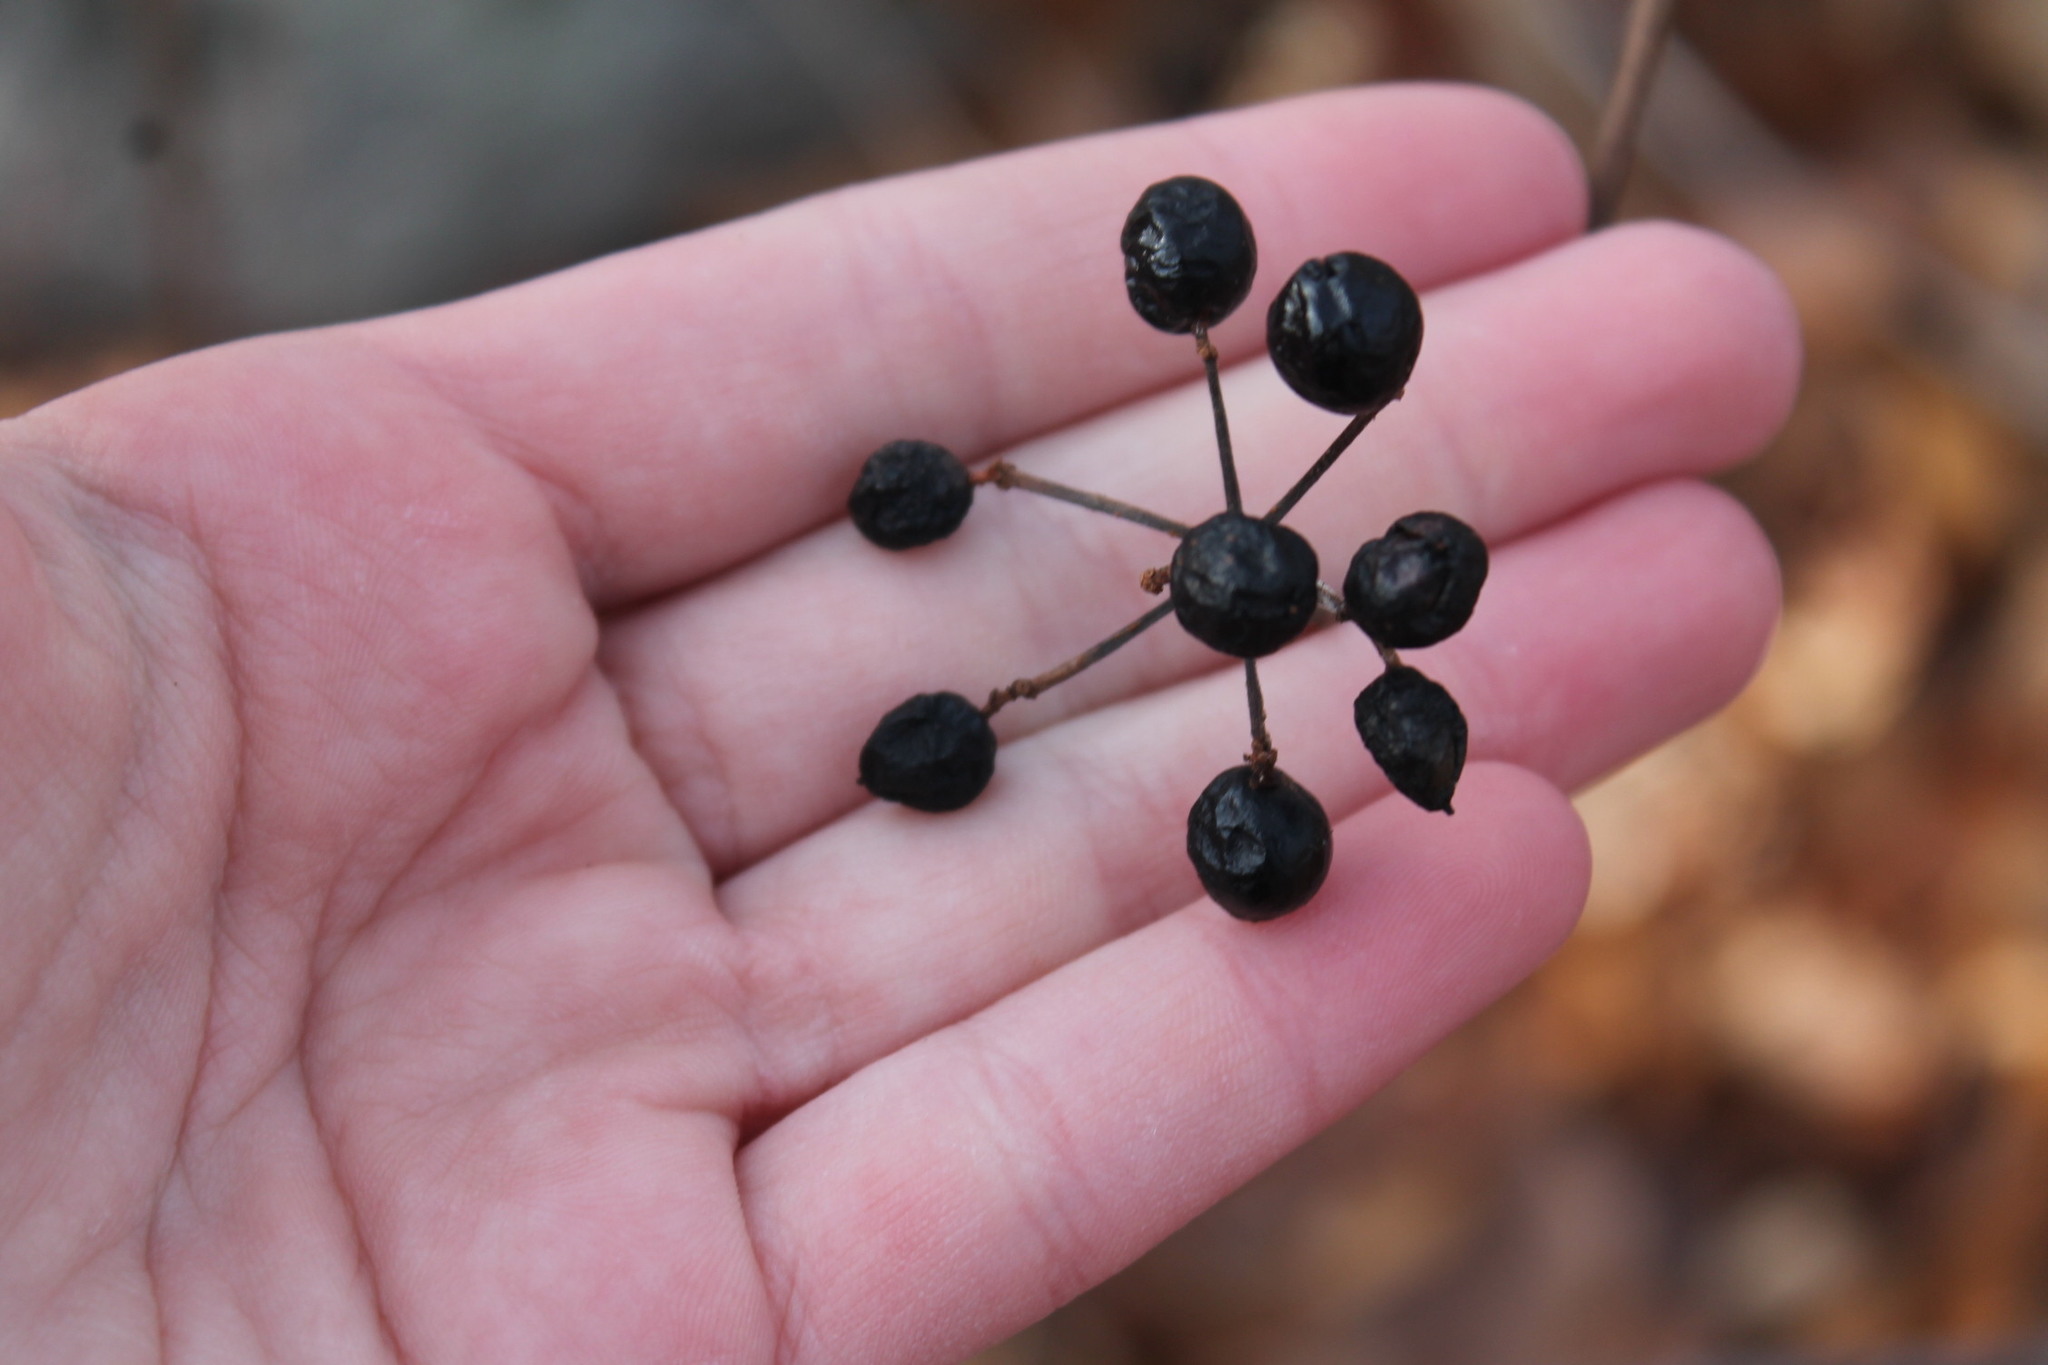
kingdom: Plantae
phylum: Tracheophyta
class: Magnoliopsida
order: Dipsacales
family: Viburnaceae
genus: Viburnum
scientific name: Viburnum acerifolium
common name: Dockmackie
